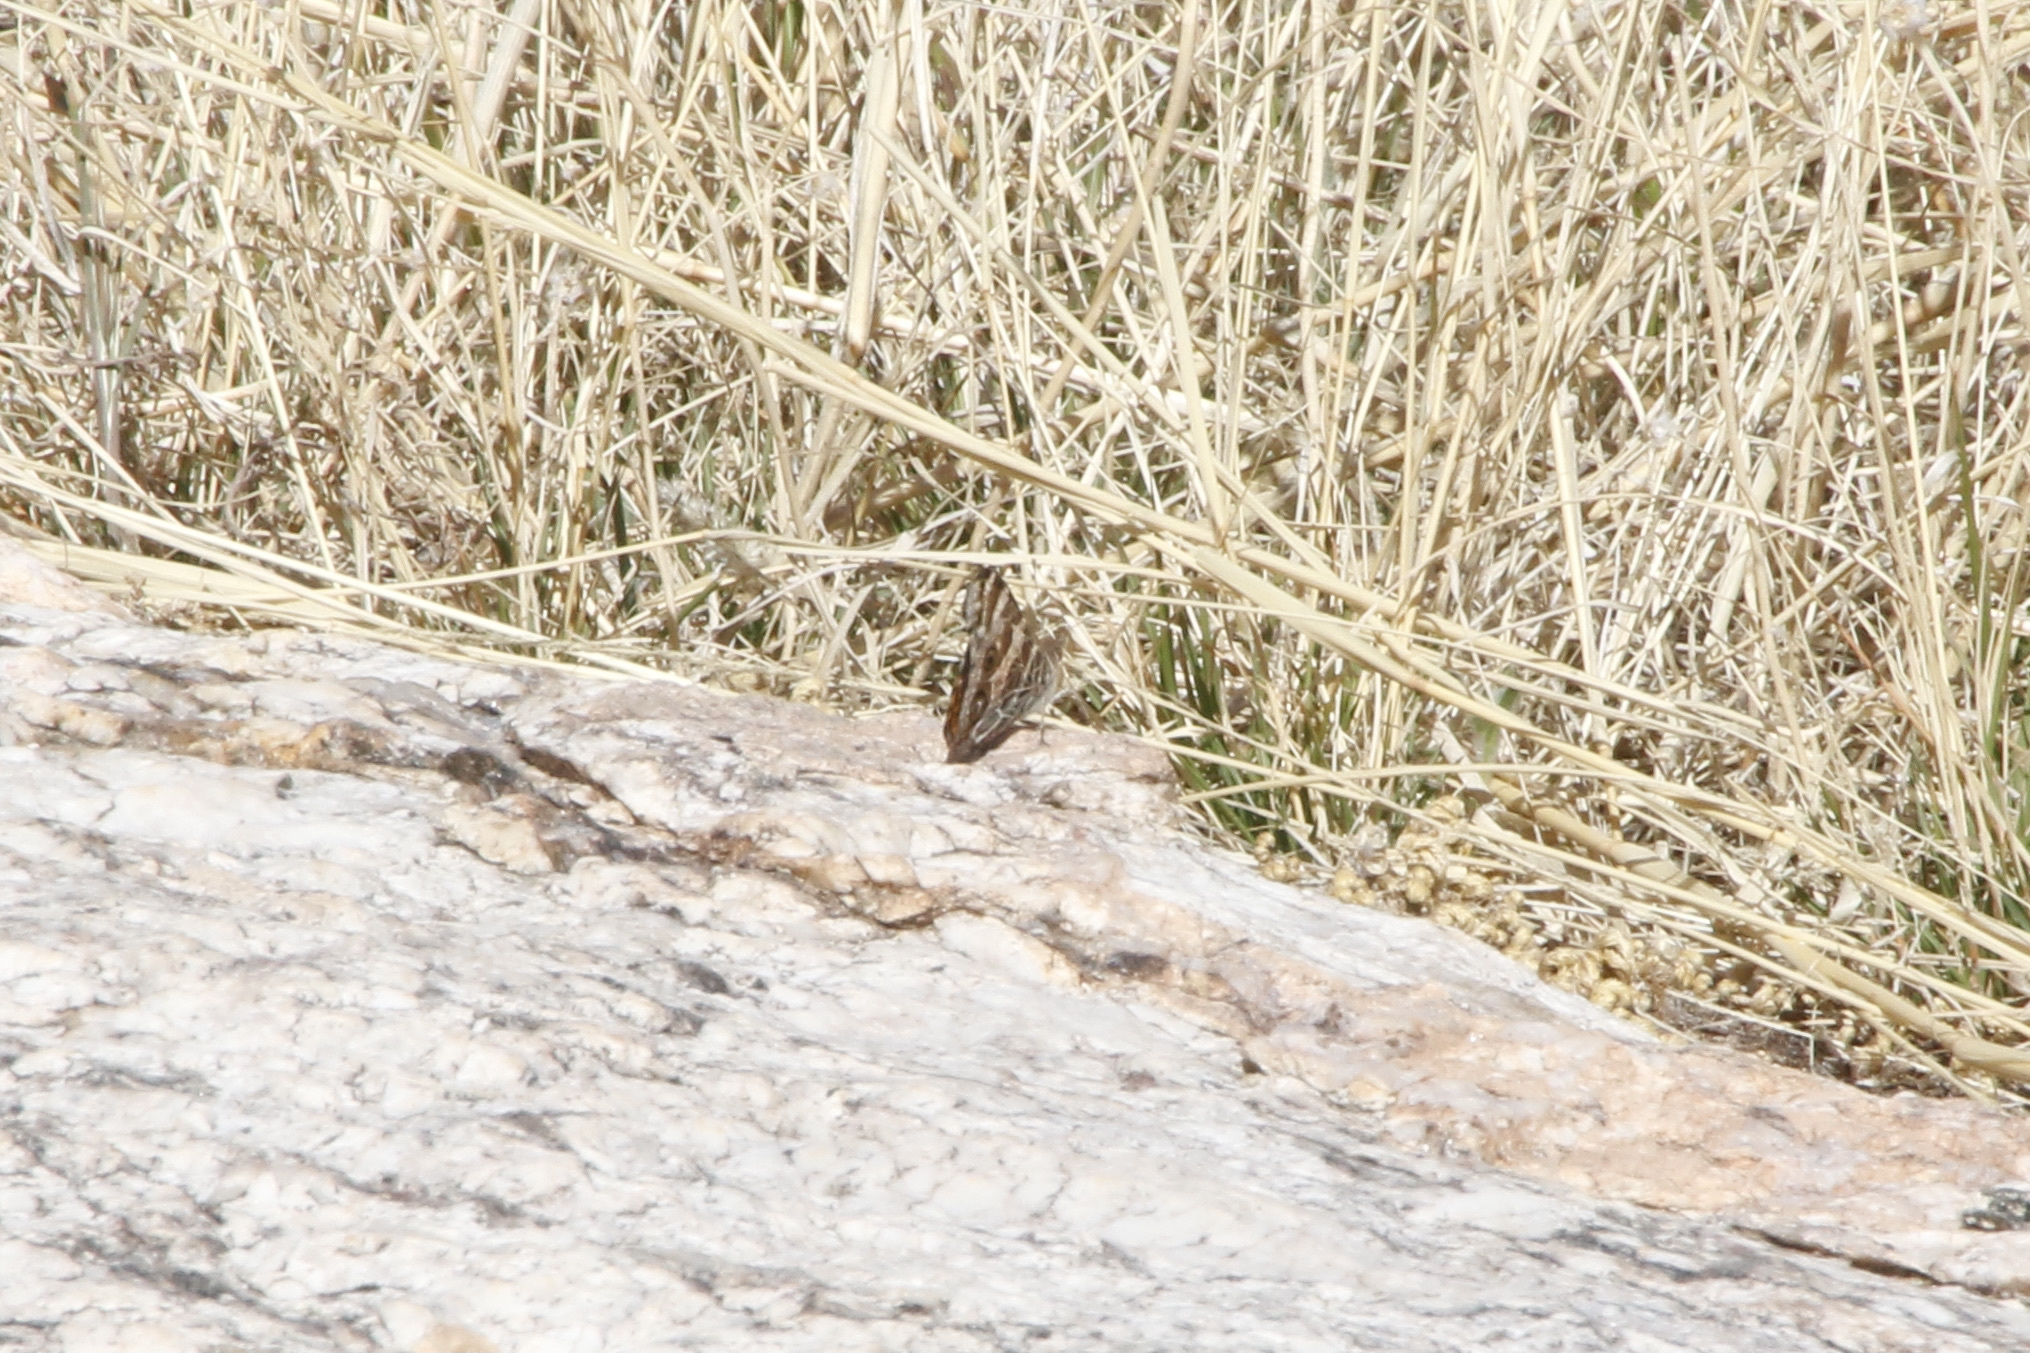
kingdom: Animalia
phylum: Arthropoda
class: Insecta
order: Lepidoptera
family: Nymphalidae
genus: Vanessa
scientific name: Vanessa virginiensis
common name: American lady
